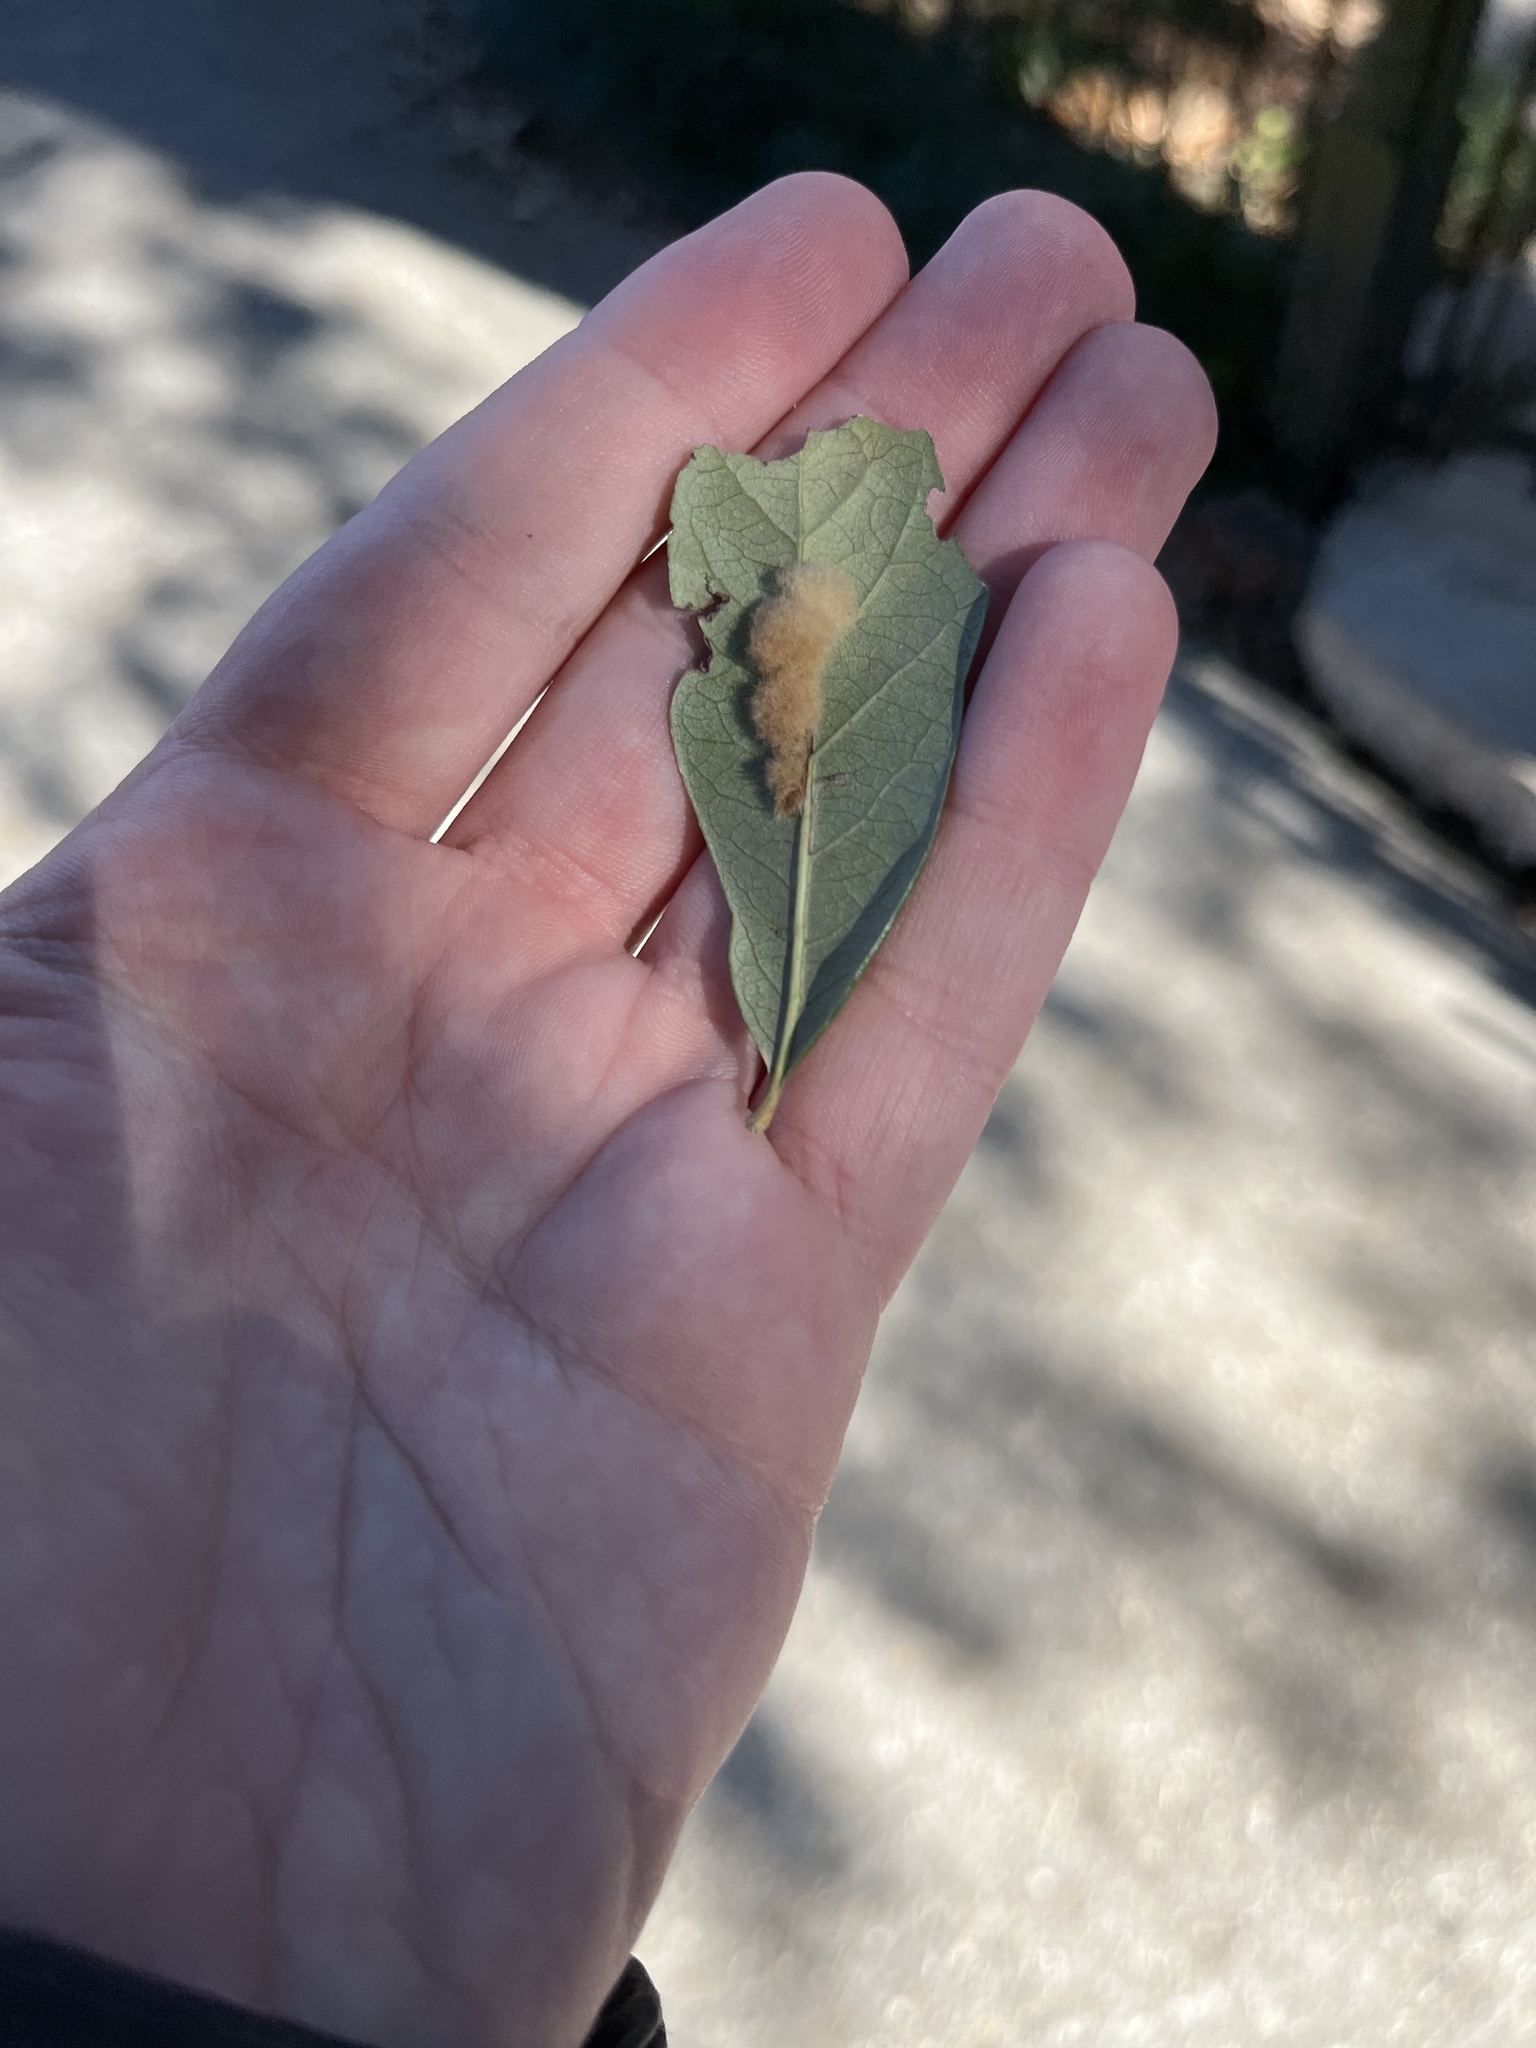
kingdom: Animalia
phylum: Arthropoda
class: Insecta
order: Hymenoptera
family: Cynipidae
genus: Andricus
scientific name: Andricus Druon quercuslanigerum
